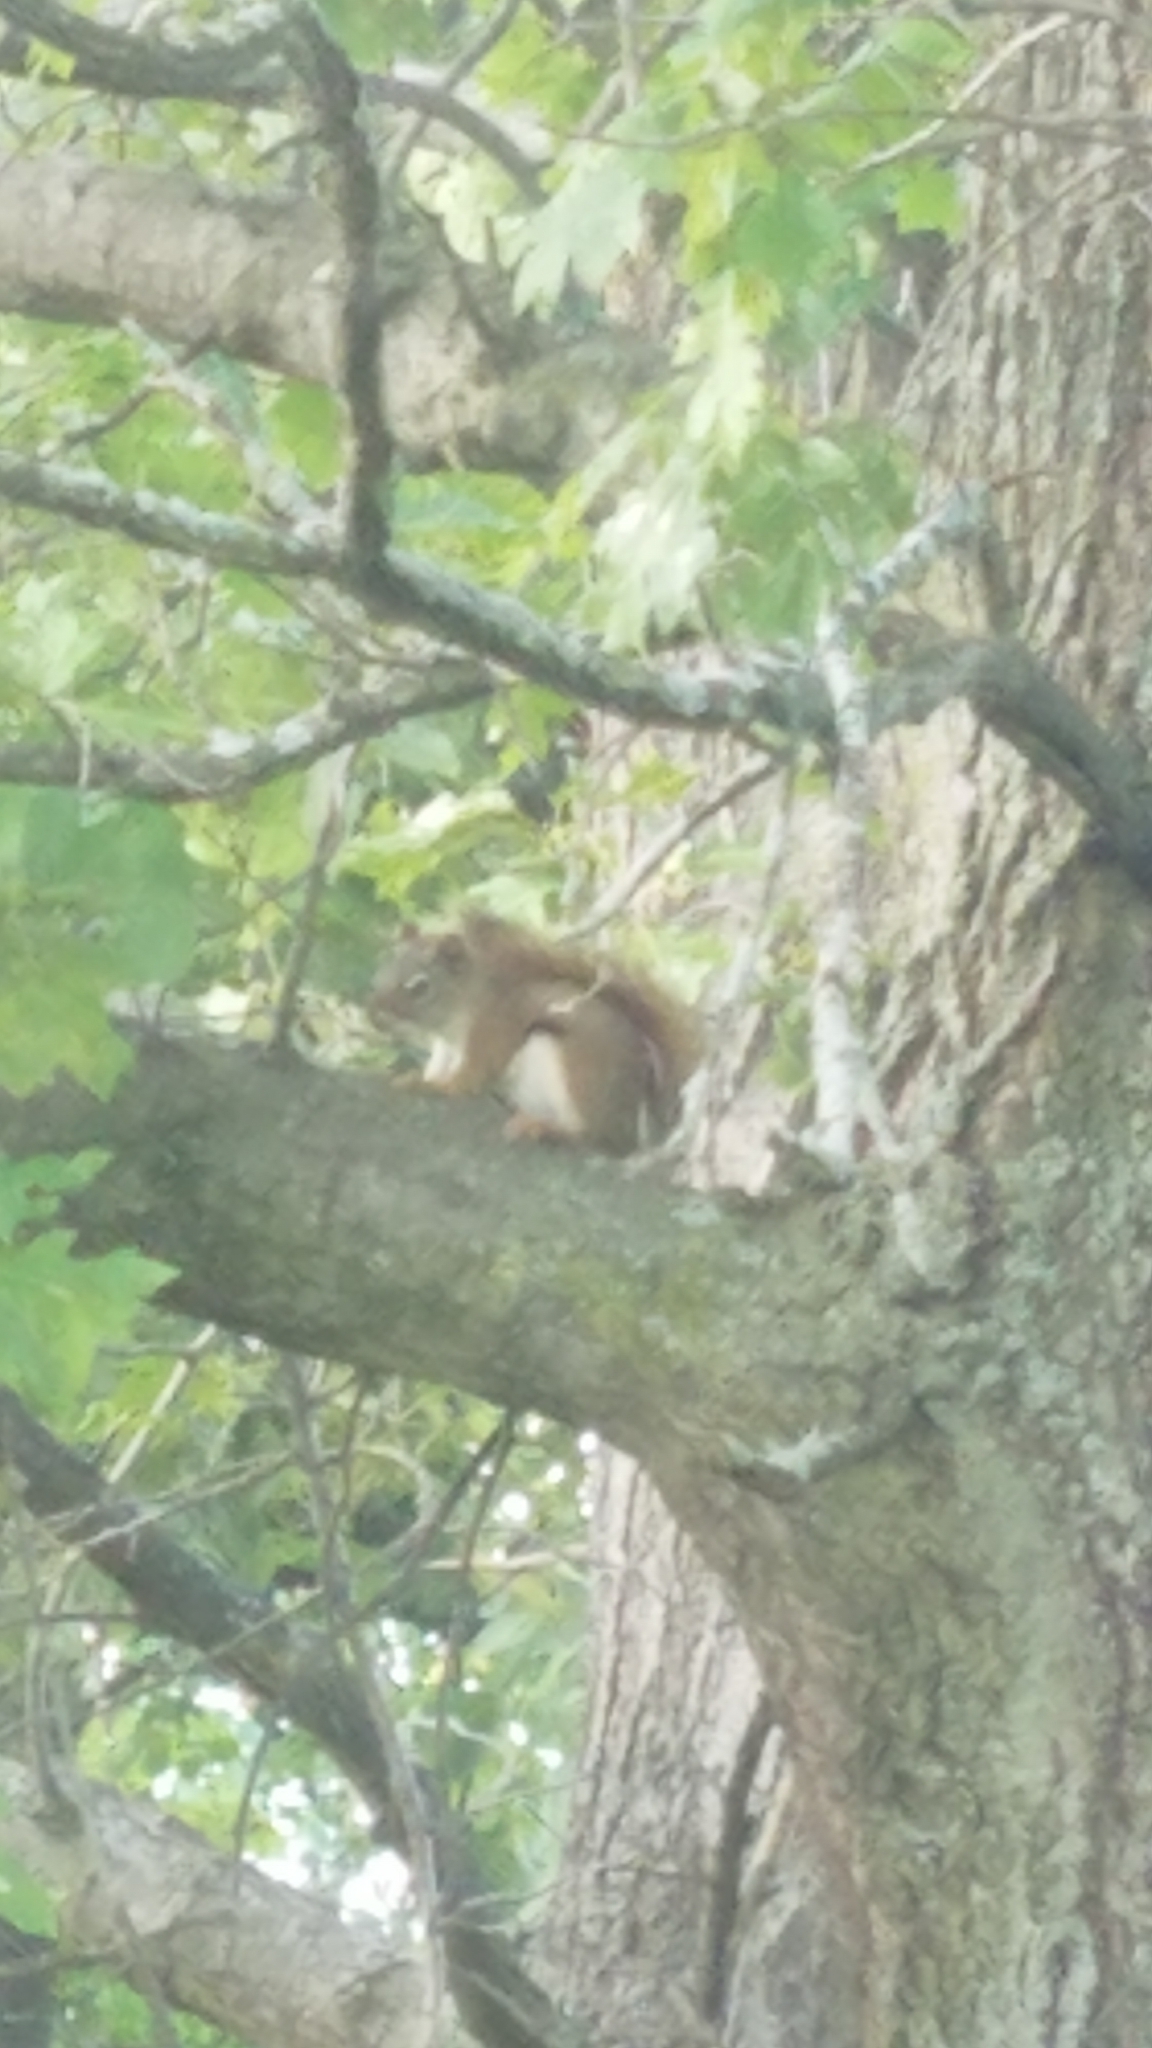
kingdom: Animalia
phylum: Chordata
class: Mammalia
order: Rodentia
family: Sciuridae
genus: Tamiasciurus
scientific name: Tamiasciurus hudsonicus
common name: Red squirrel
